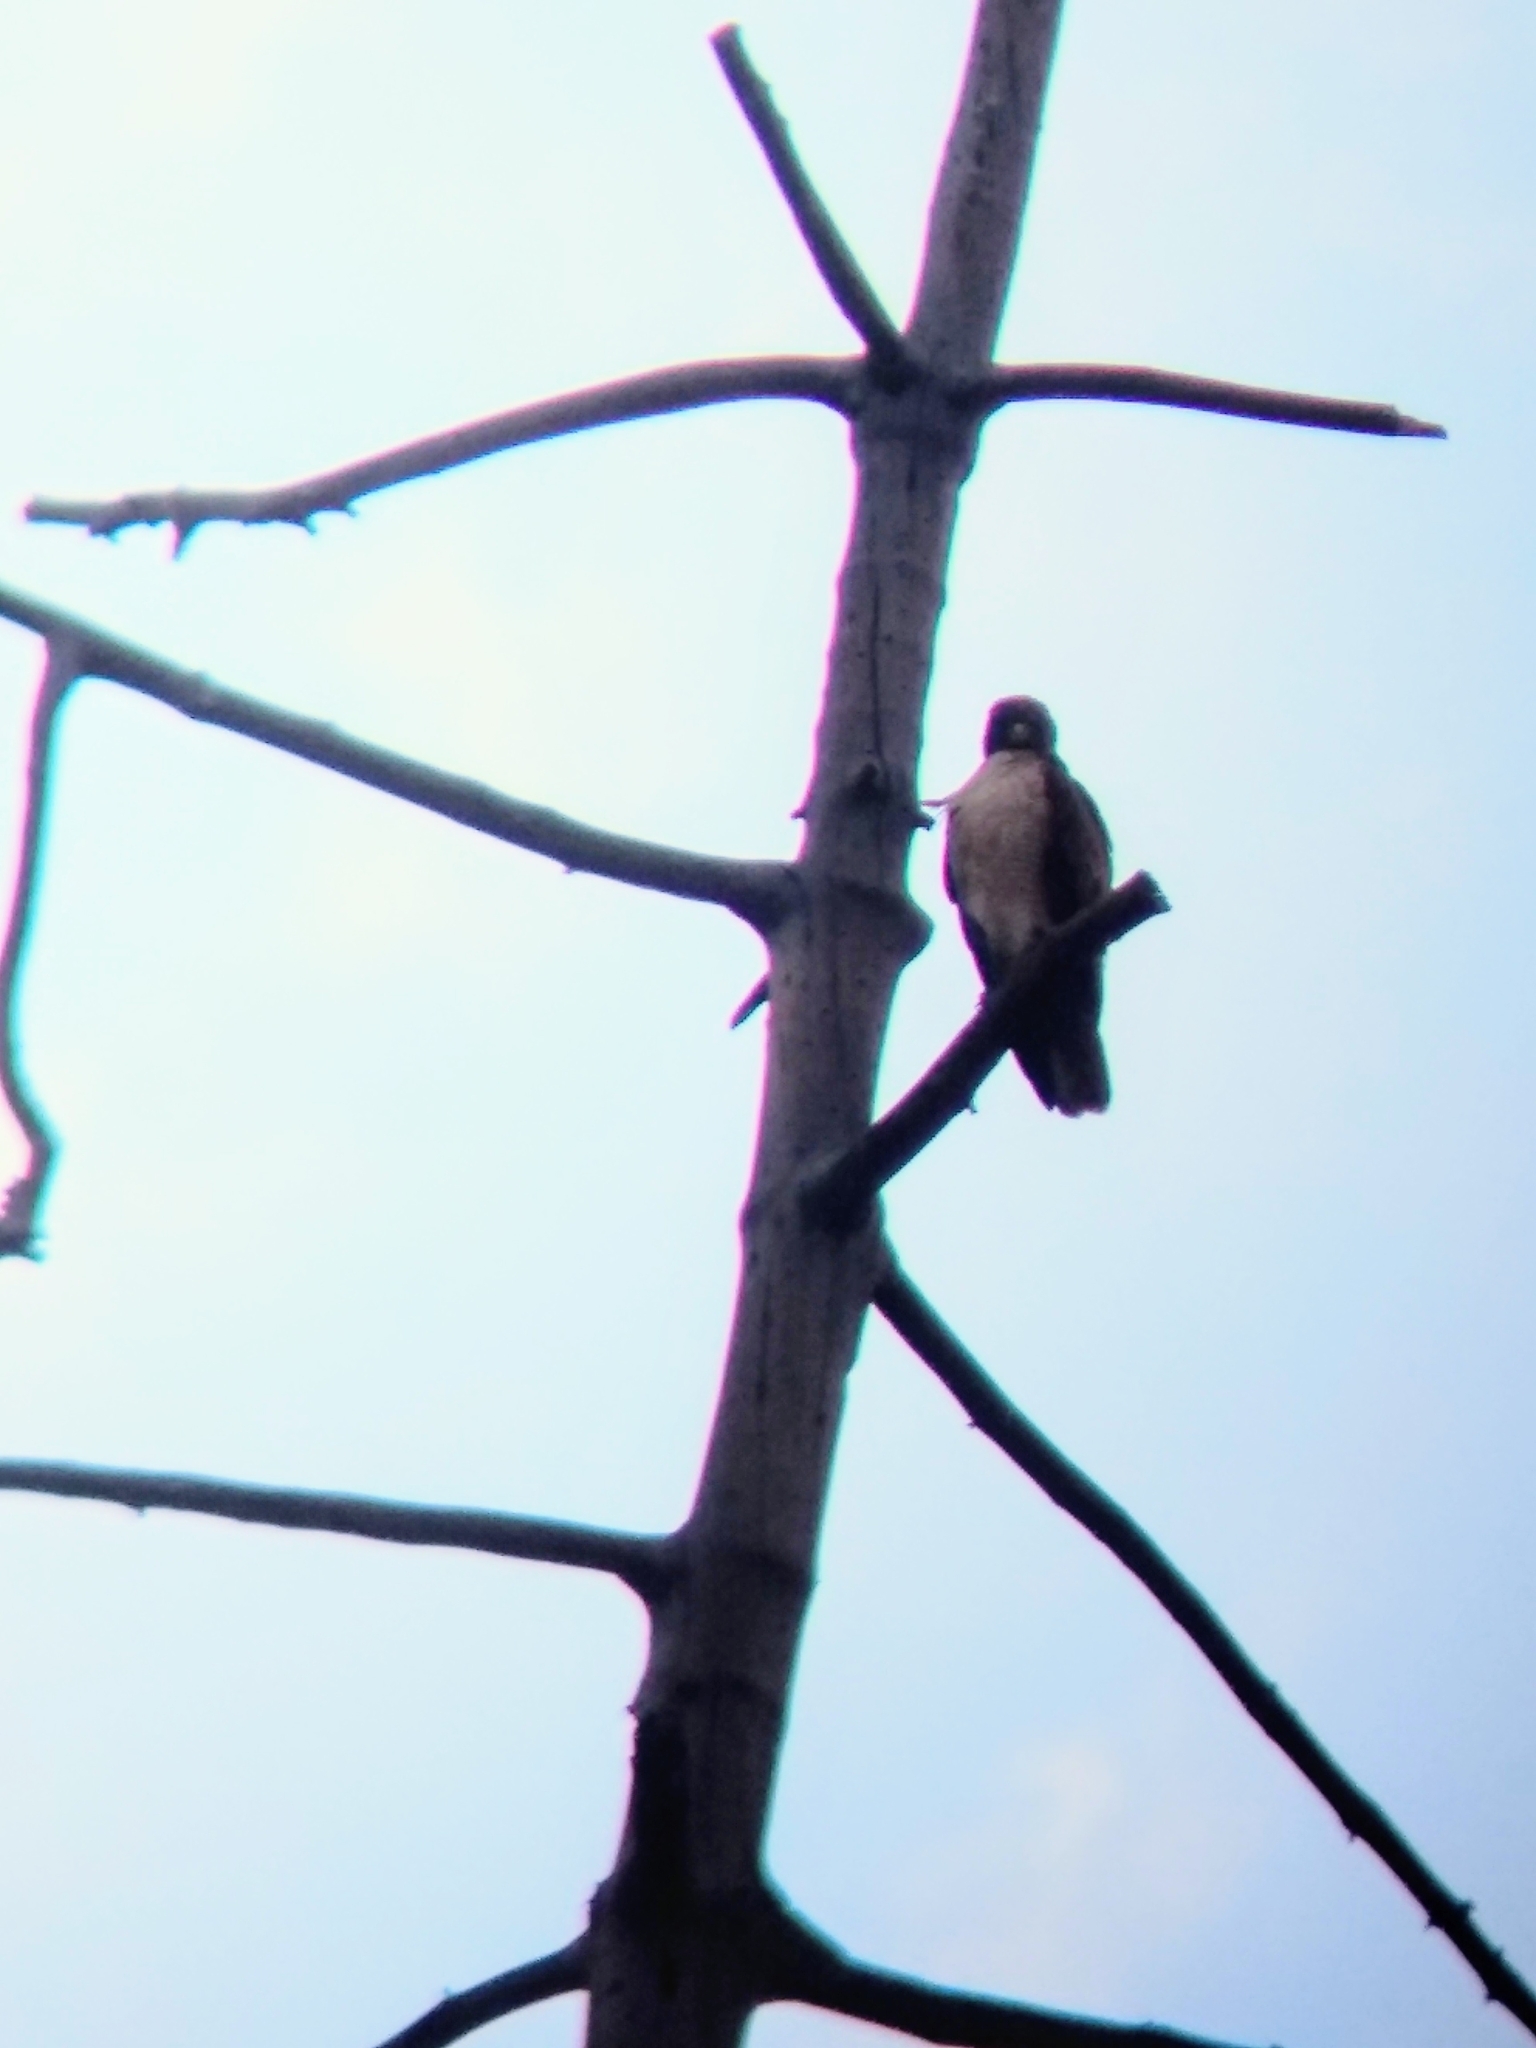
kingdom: Animalia
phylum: Chordata
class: Aves
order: Accipitriformes
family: Accipitridae
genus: Buteo
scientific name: Buteo jamaicensis
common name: Red-tailed hawk
